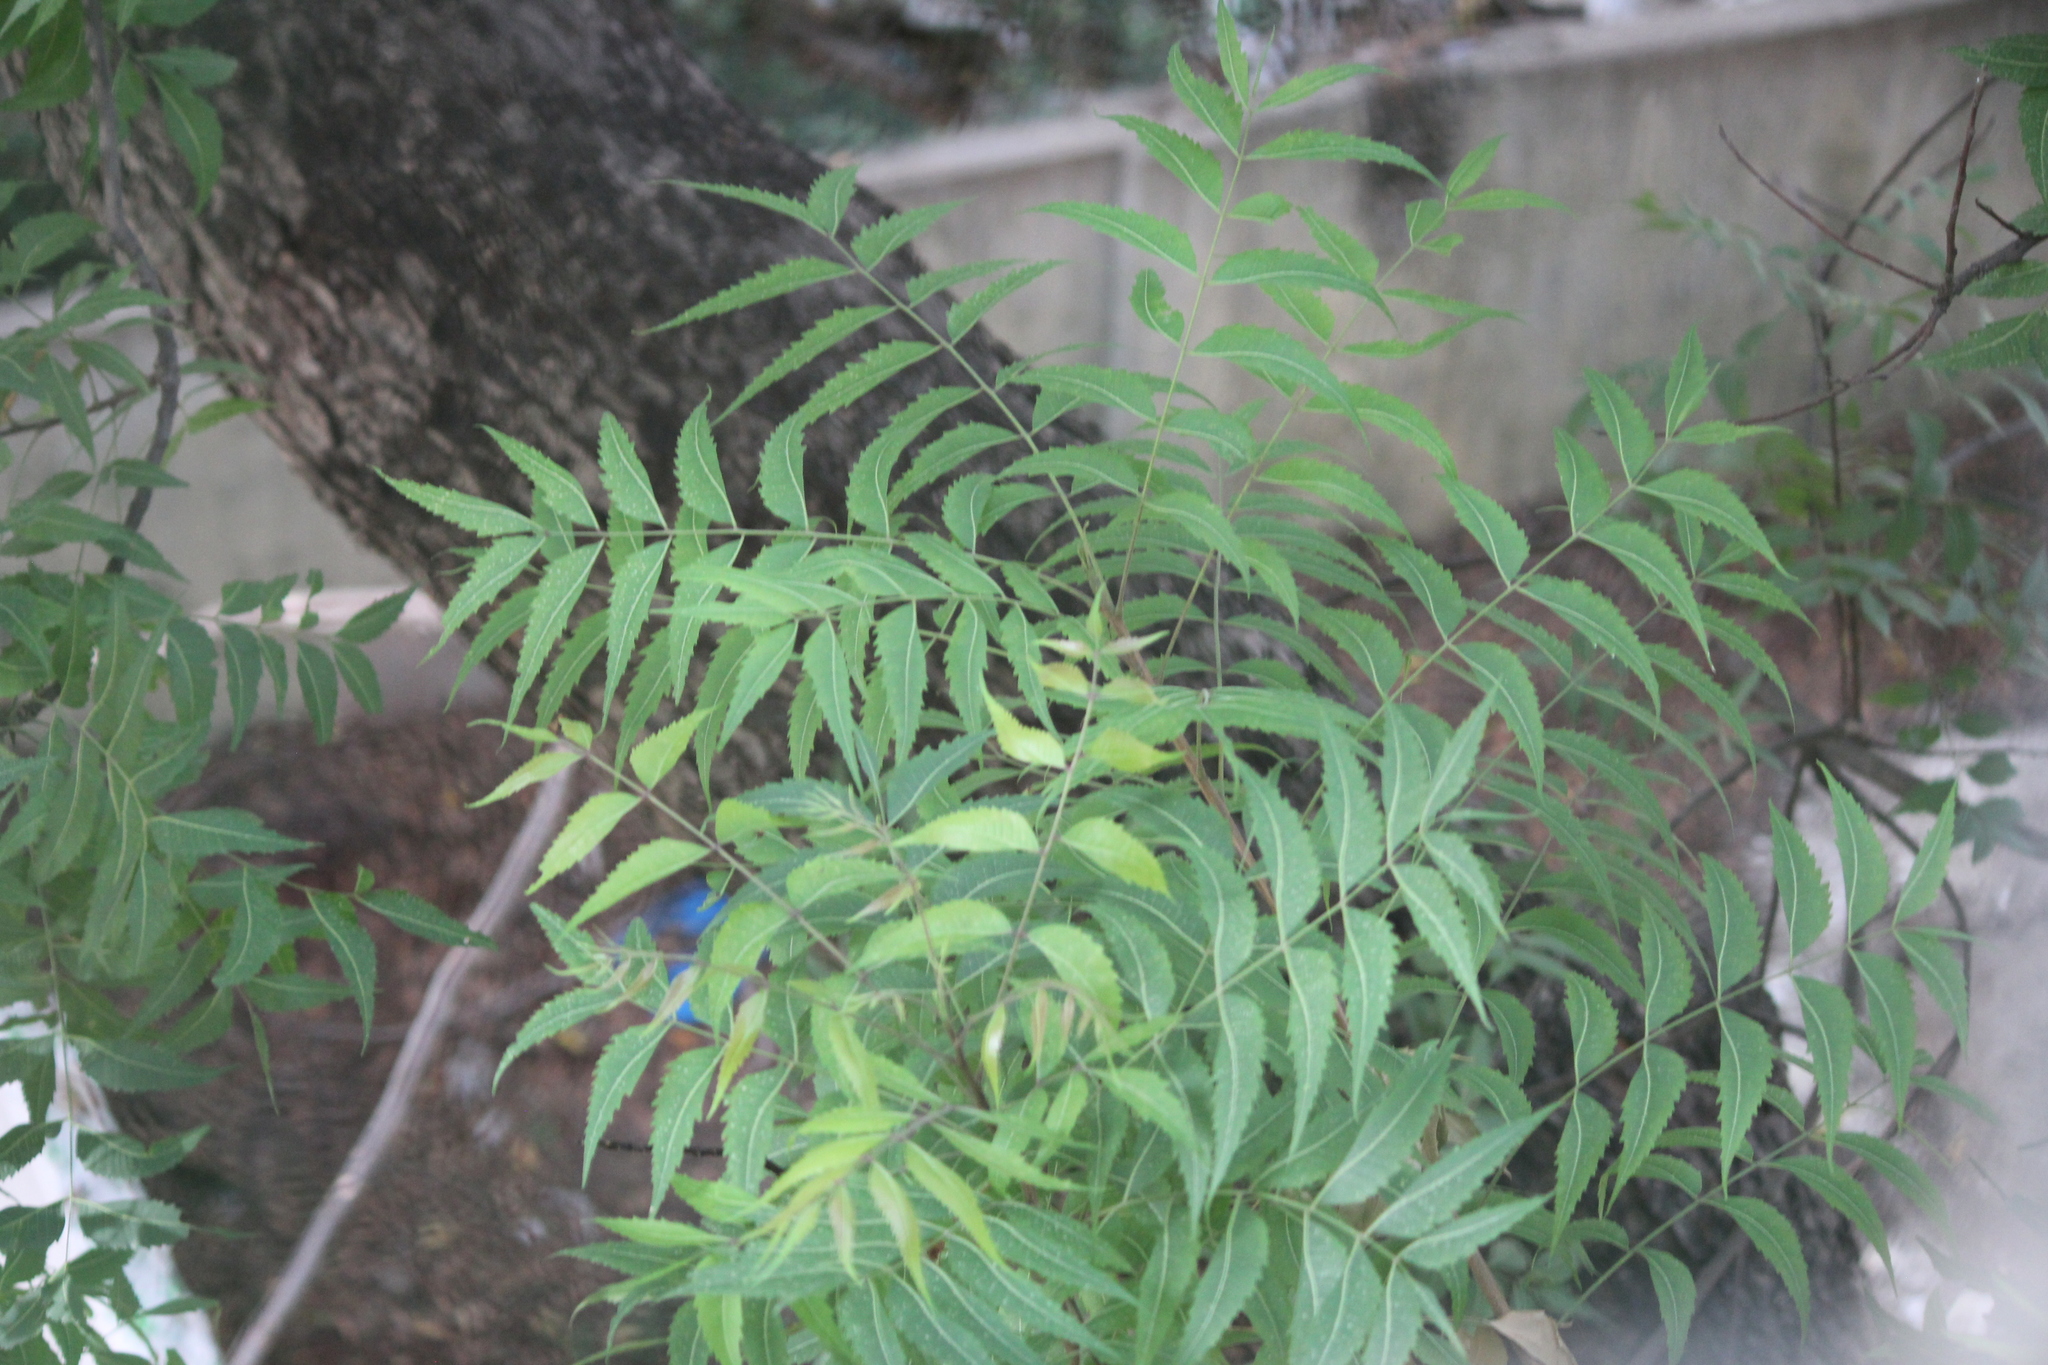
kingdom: Plantae
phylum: Tracheophyta
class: Magnoliopsida
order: Sapindales
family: Meliaceae
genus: Azadirachta
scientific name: Azadirachta indica
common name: Neem
